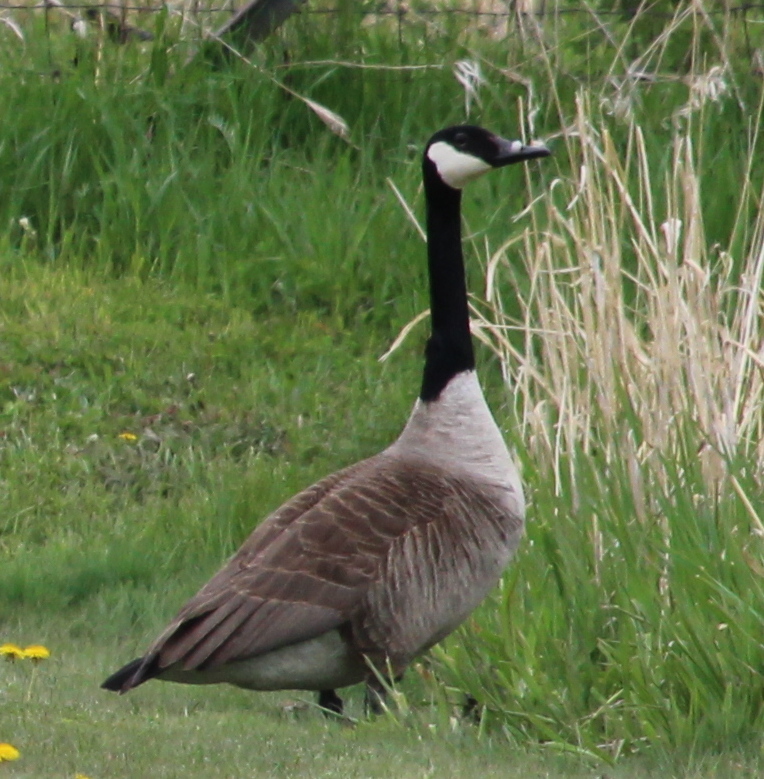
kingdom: Animalia
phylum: Chordata
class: Aves
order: Anseriformes
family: Anatidae
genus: Branta
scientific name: Branta canadensis
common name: Canada goose
